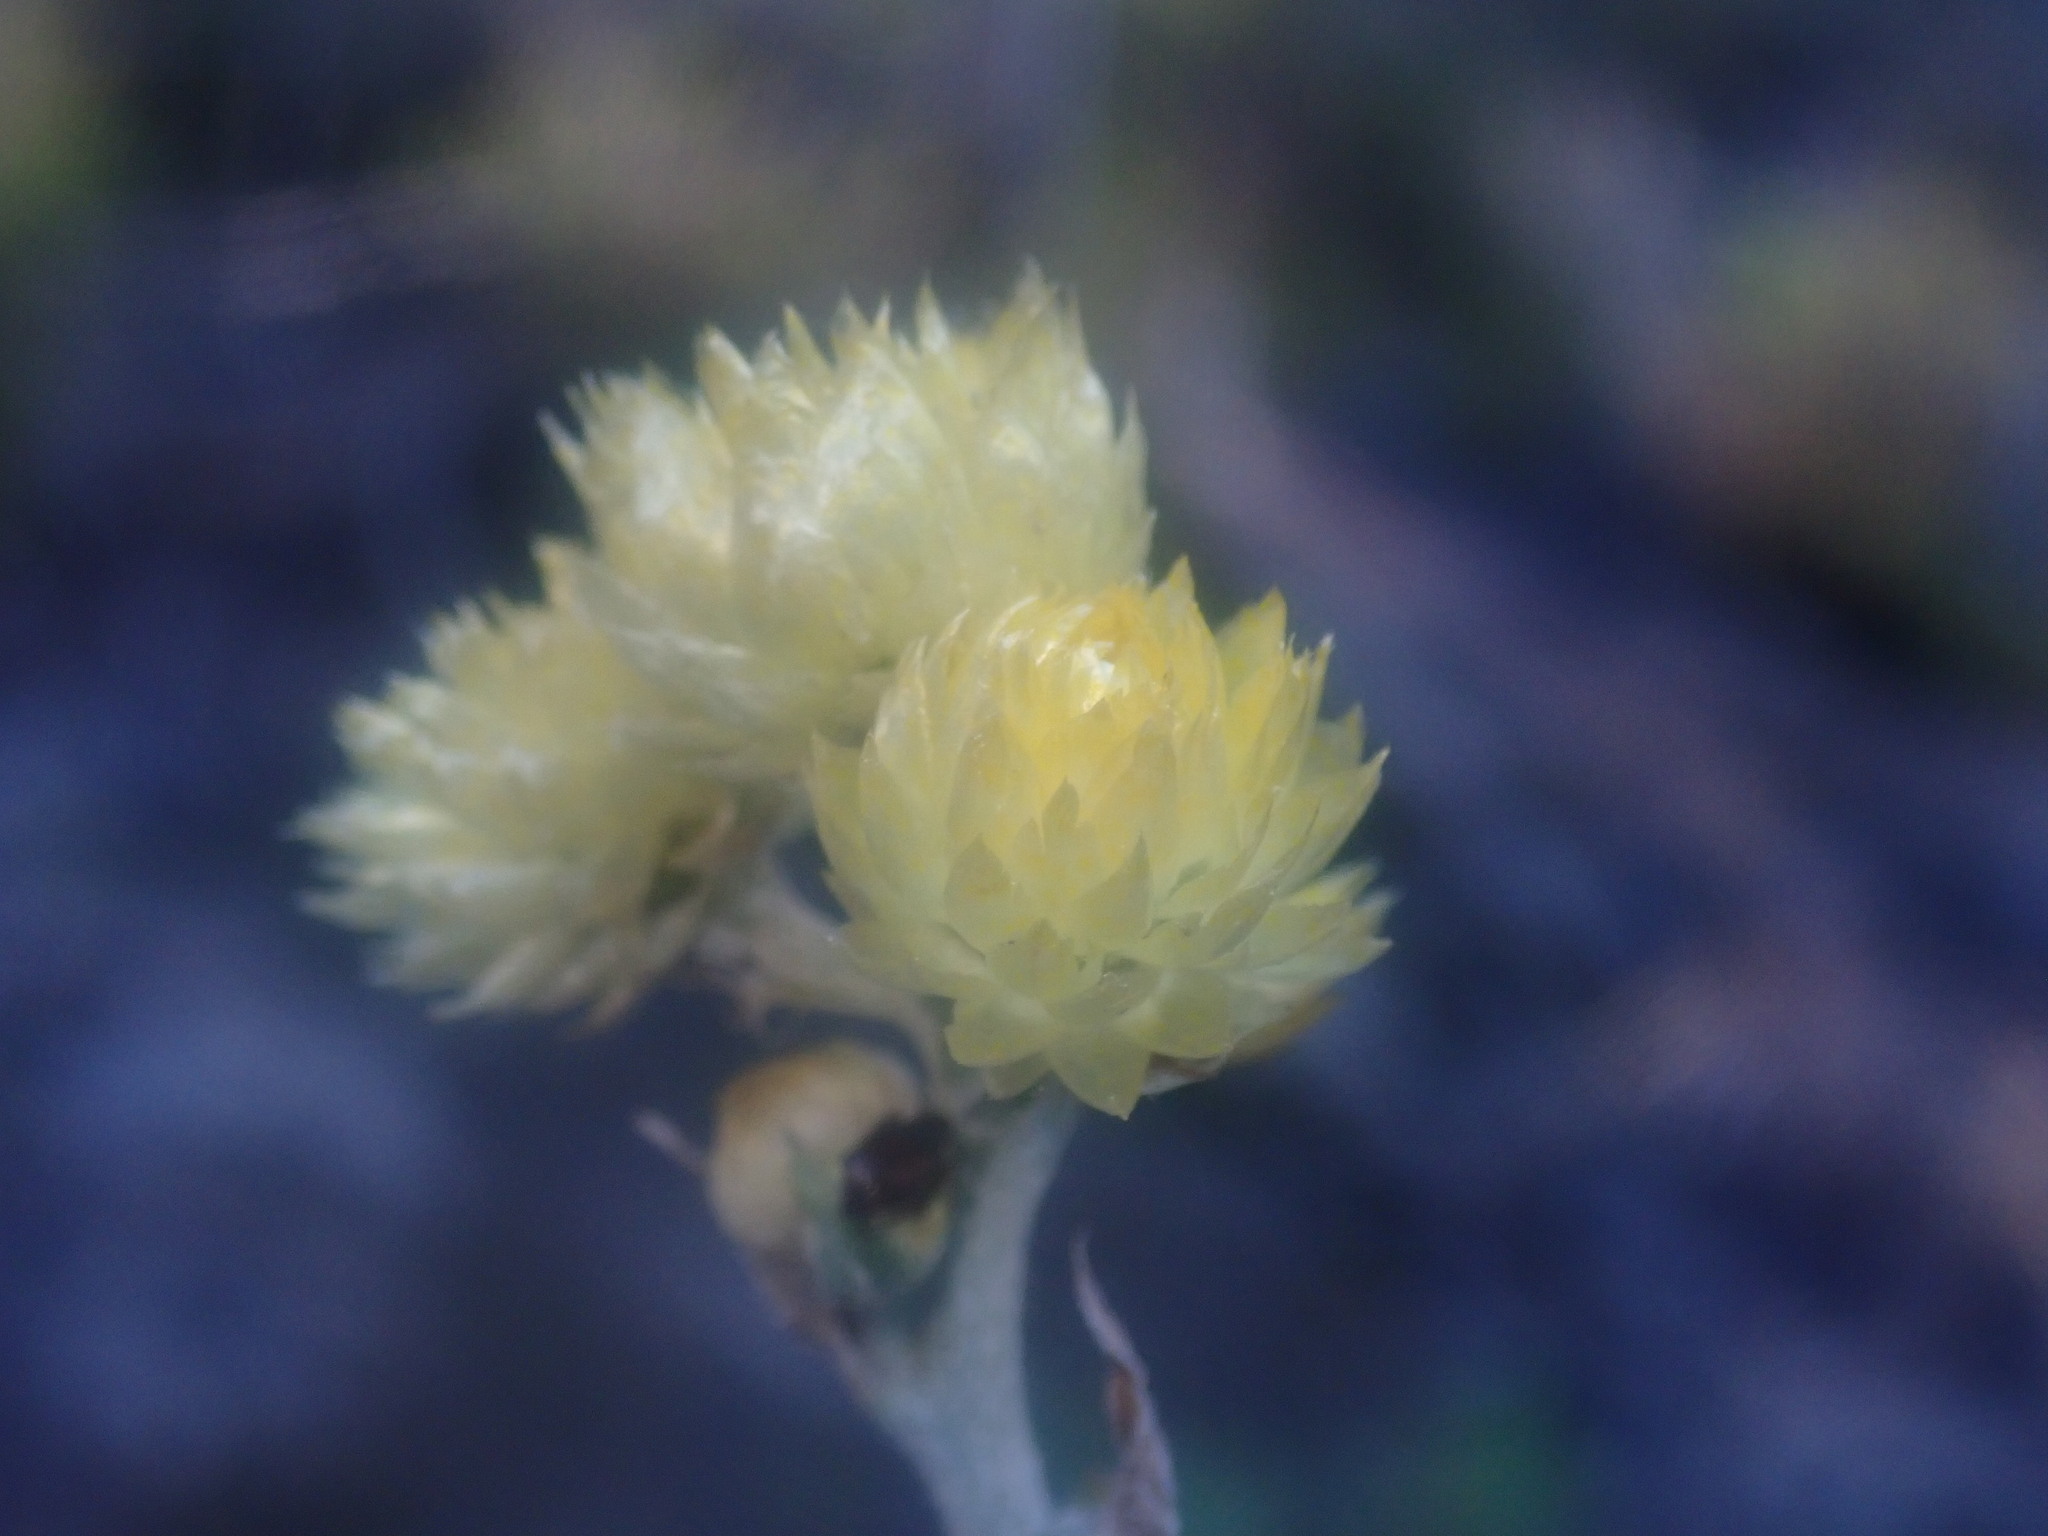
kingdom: Plantae
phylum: Tracheophyta
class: Magnoliopsida
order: Asterales
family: Asteraceae
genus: Helichrysum
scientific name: Helichrysum foetidum
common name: Stinking everlasting
